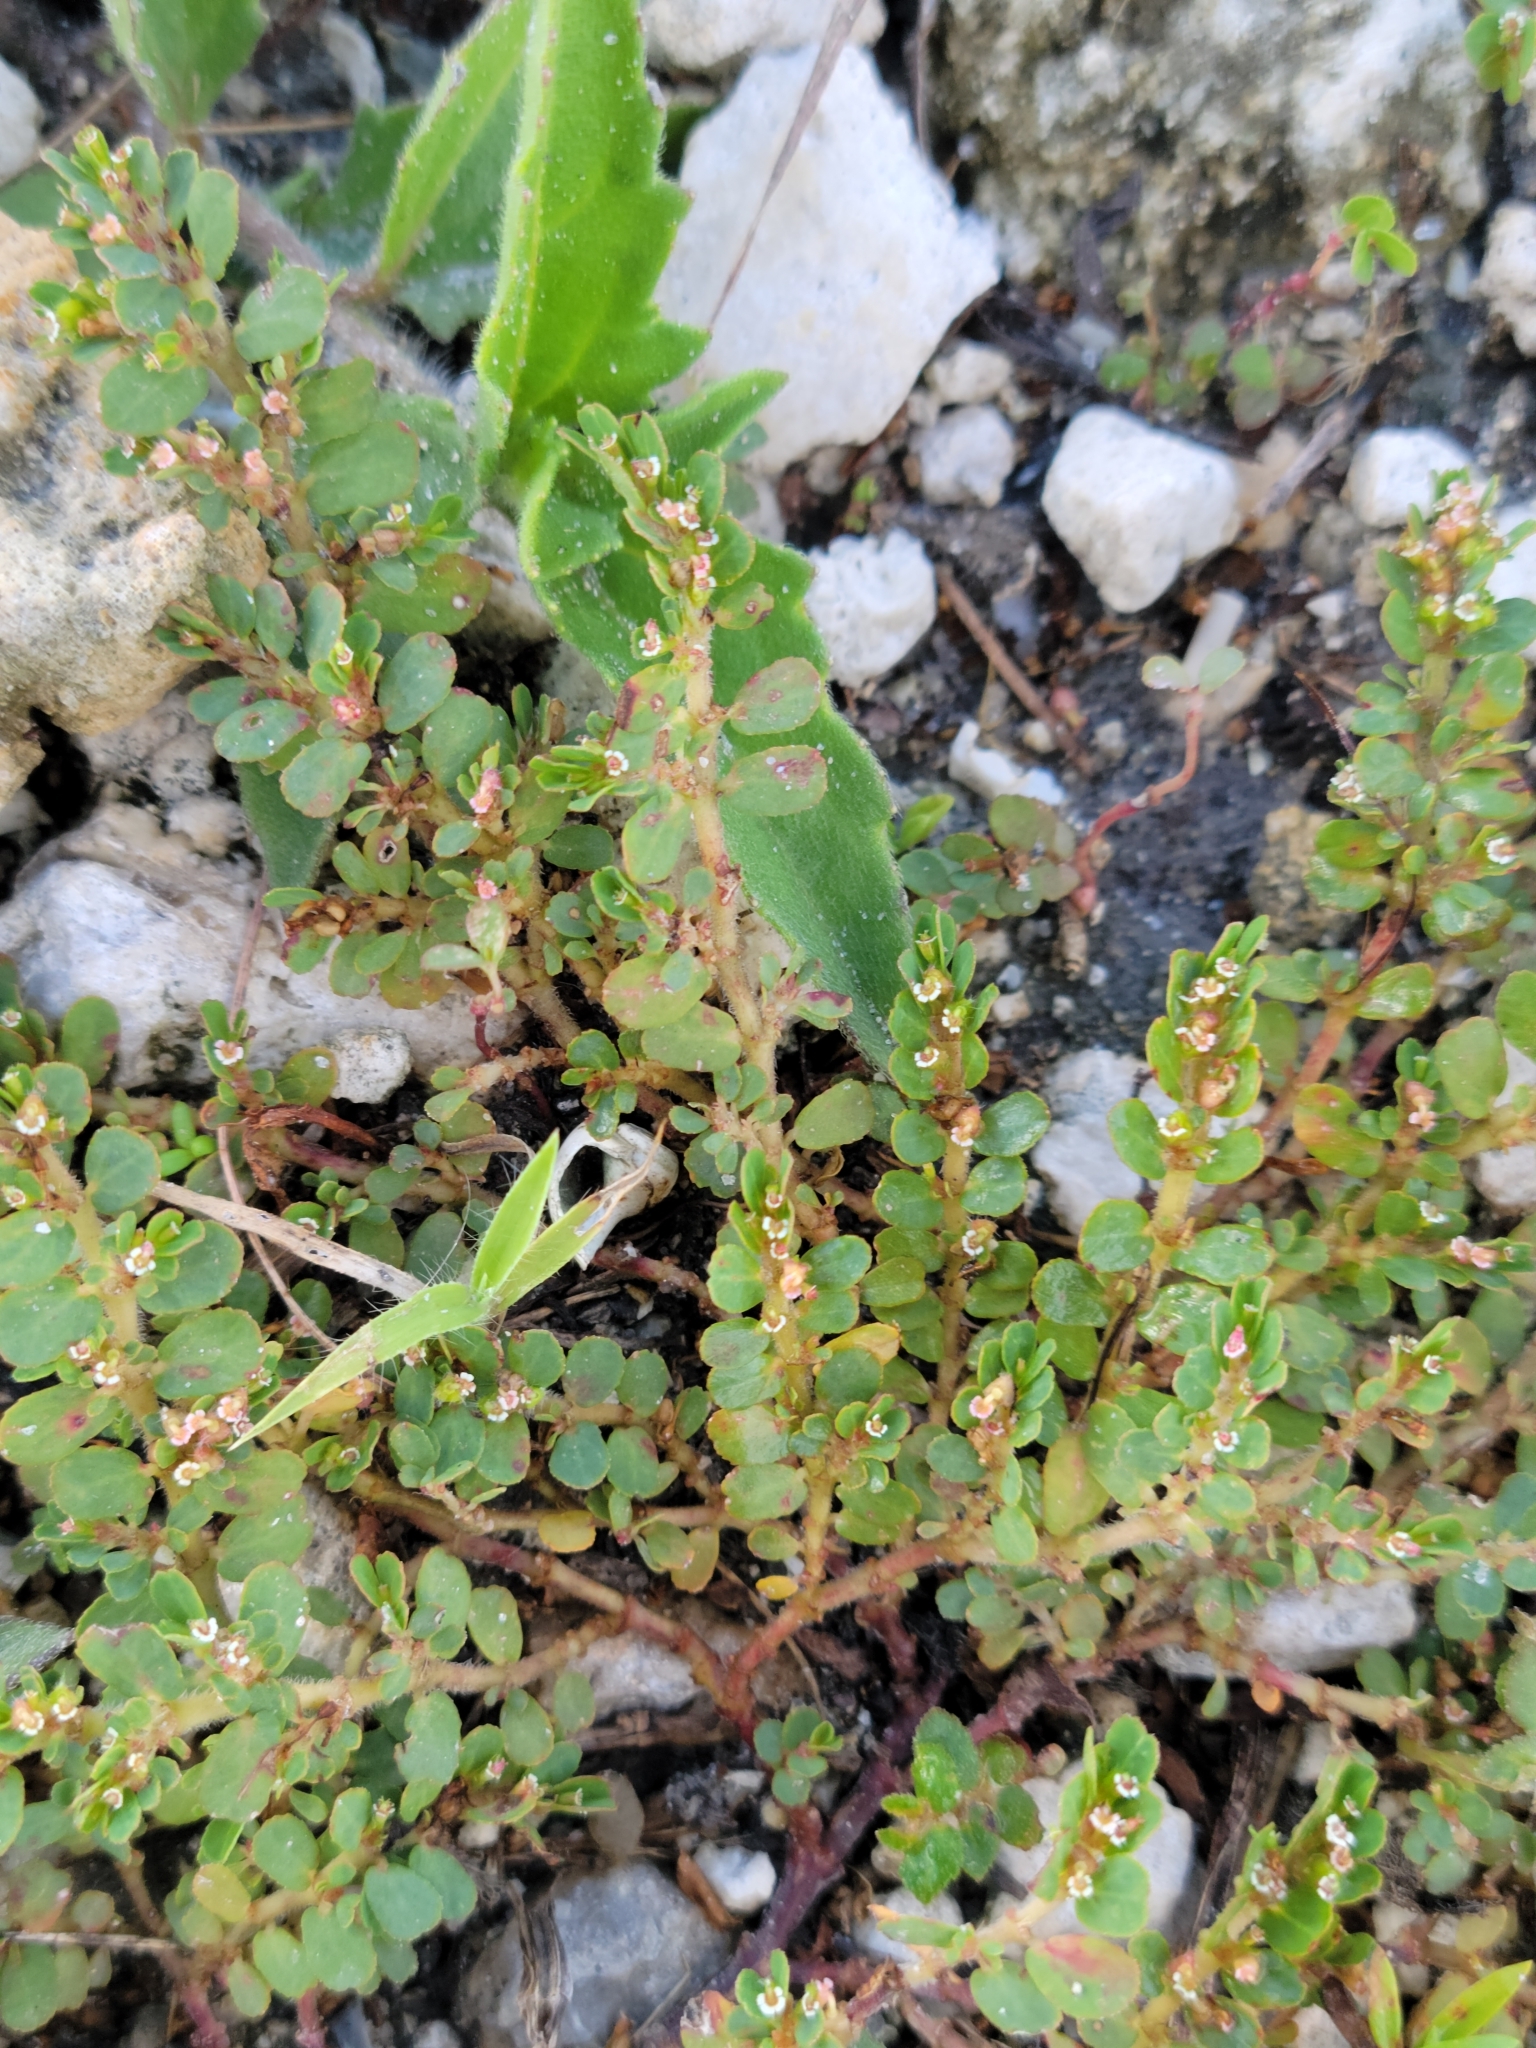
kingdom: Plantae
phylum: Tracheophyta
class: Magnoliopsida
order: Malpighiales
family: Euphorbiaceae
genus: Euphorbia
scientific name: Euphorbia mendezii
